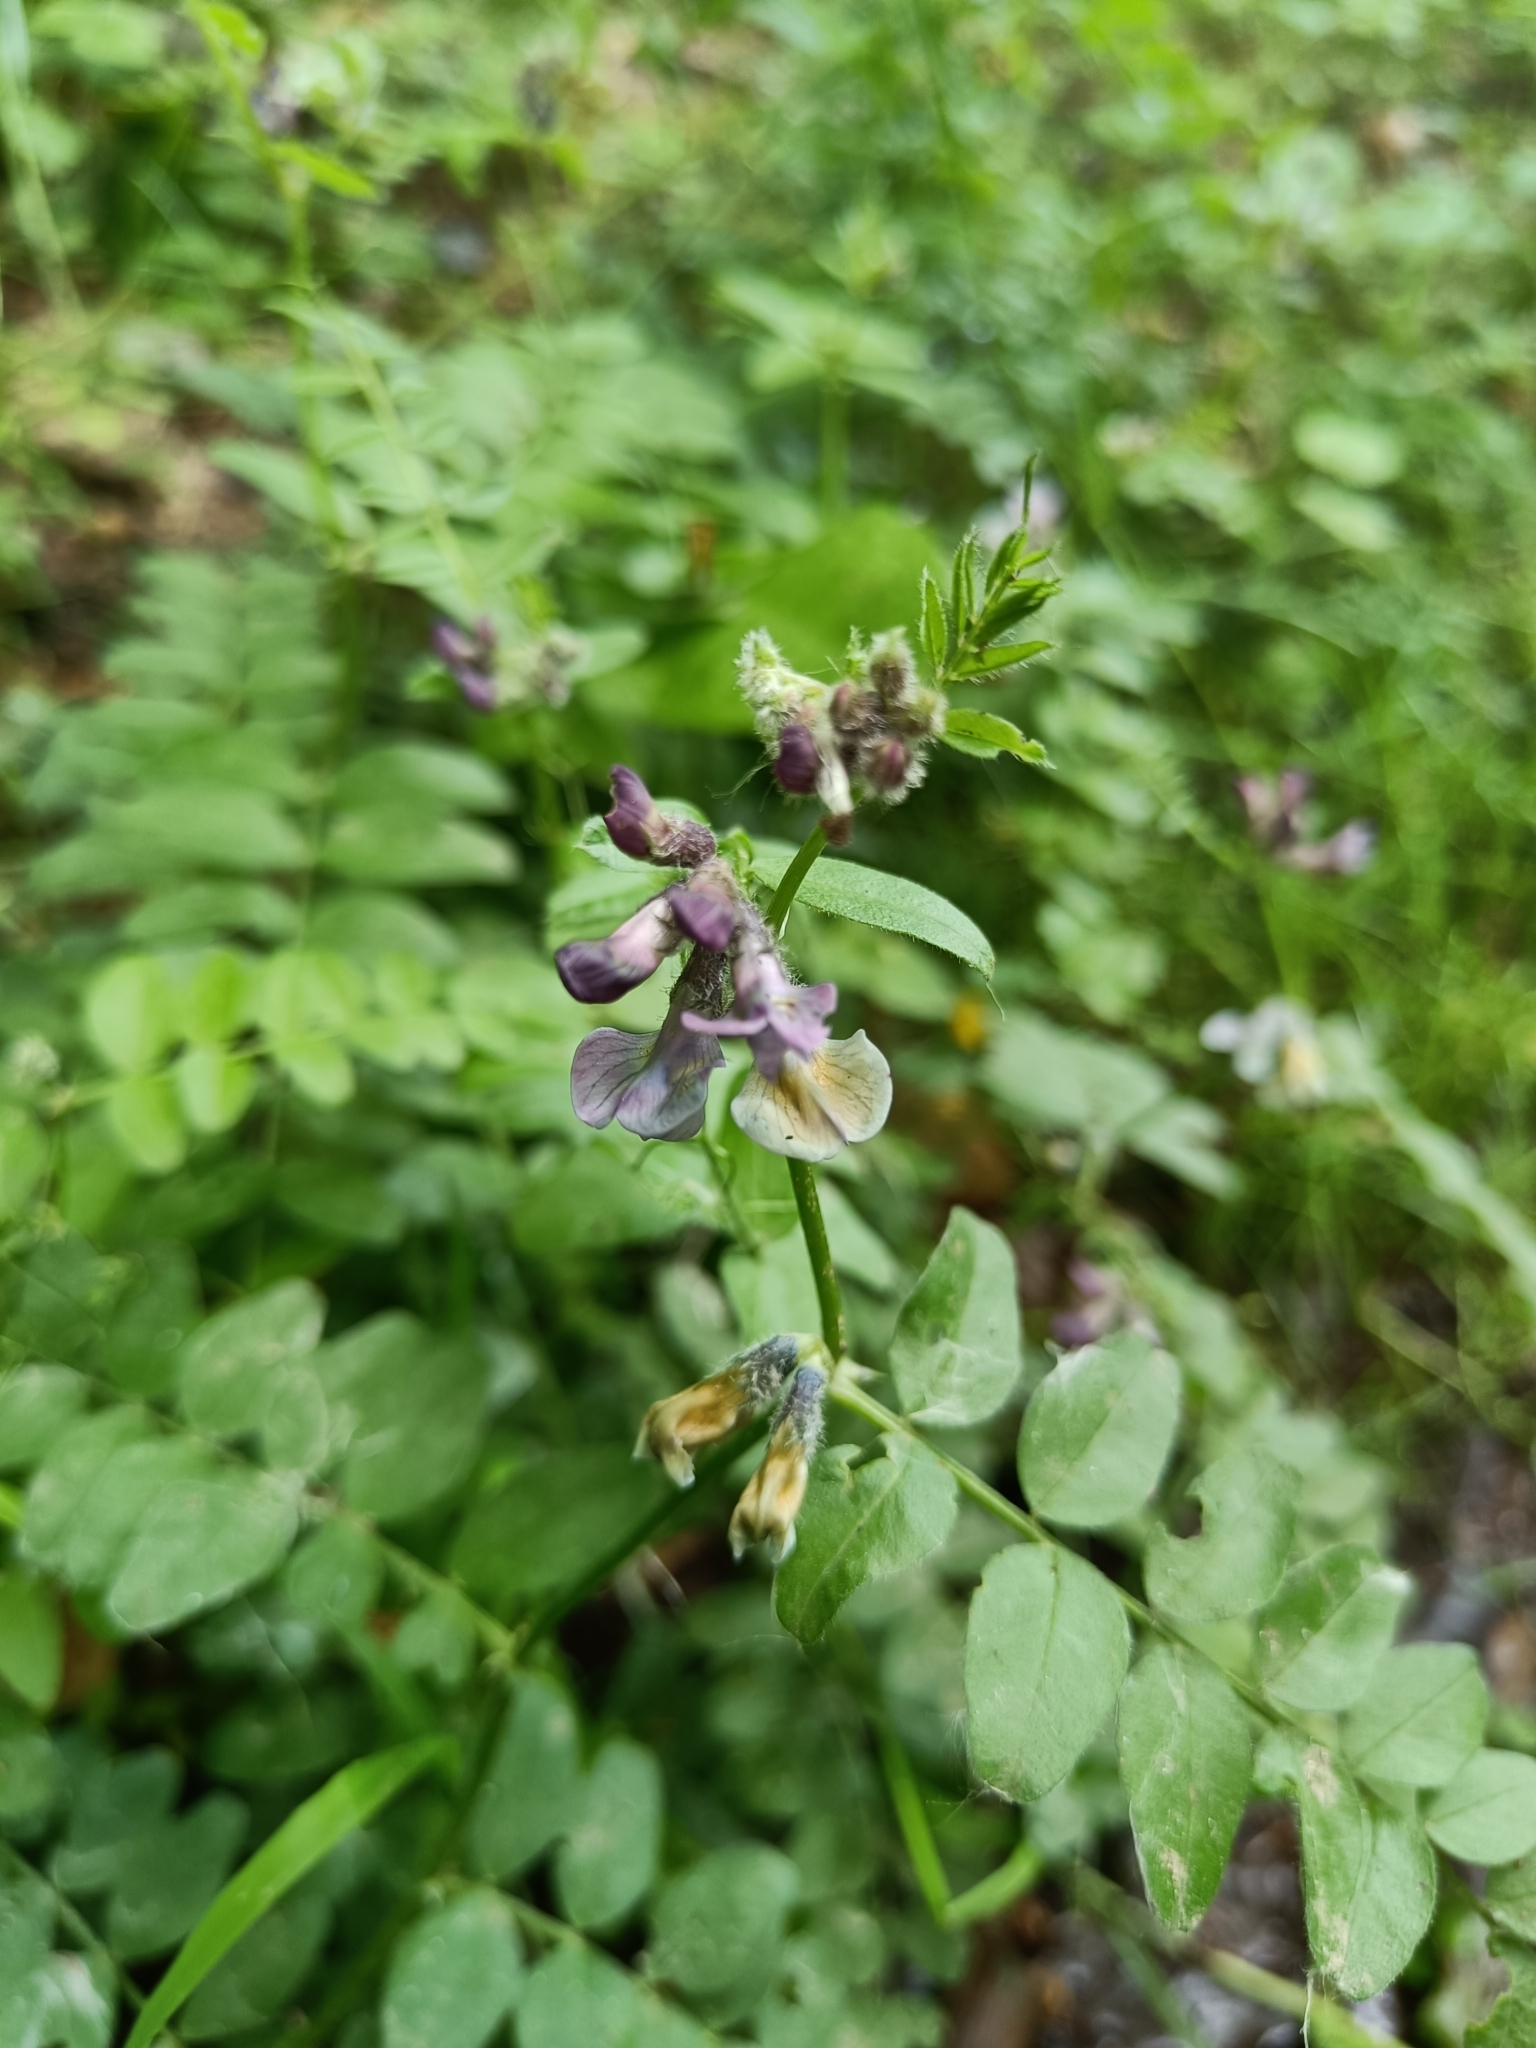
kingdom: Plantae
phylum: Tracheophyta
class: Magnoliopsida
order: Fabales
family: Fabaceae
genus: Vicia
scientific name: Vicia sepium
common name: Bush vetch
